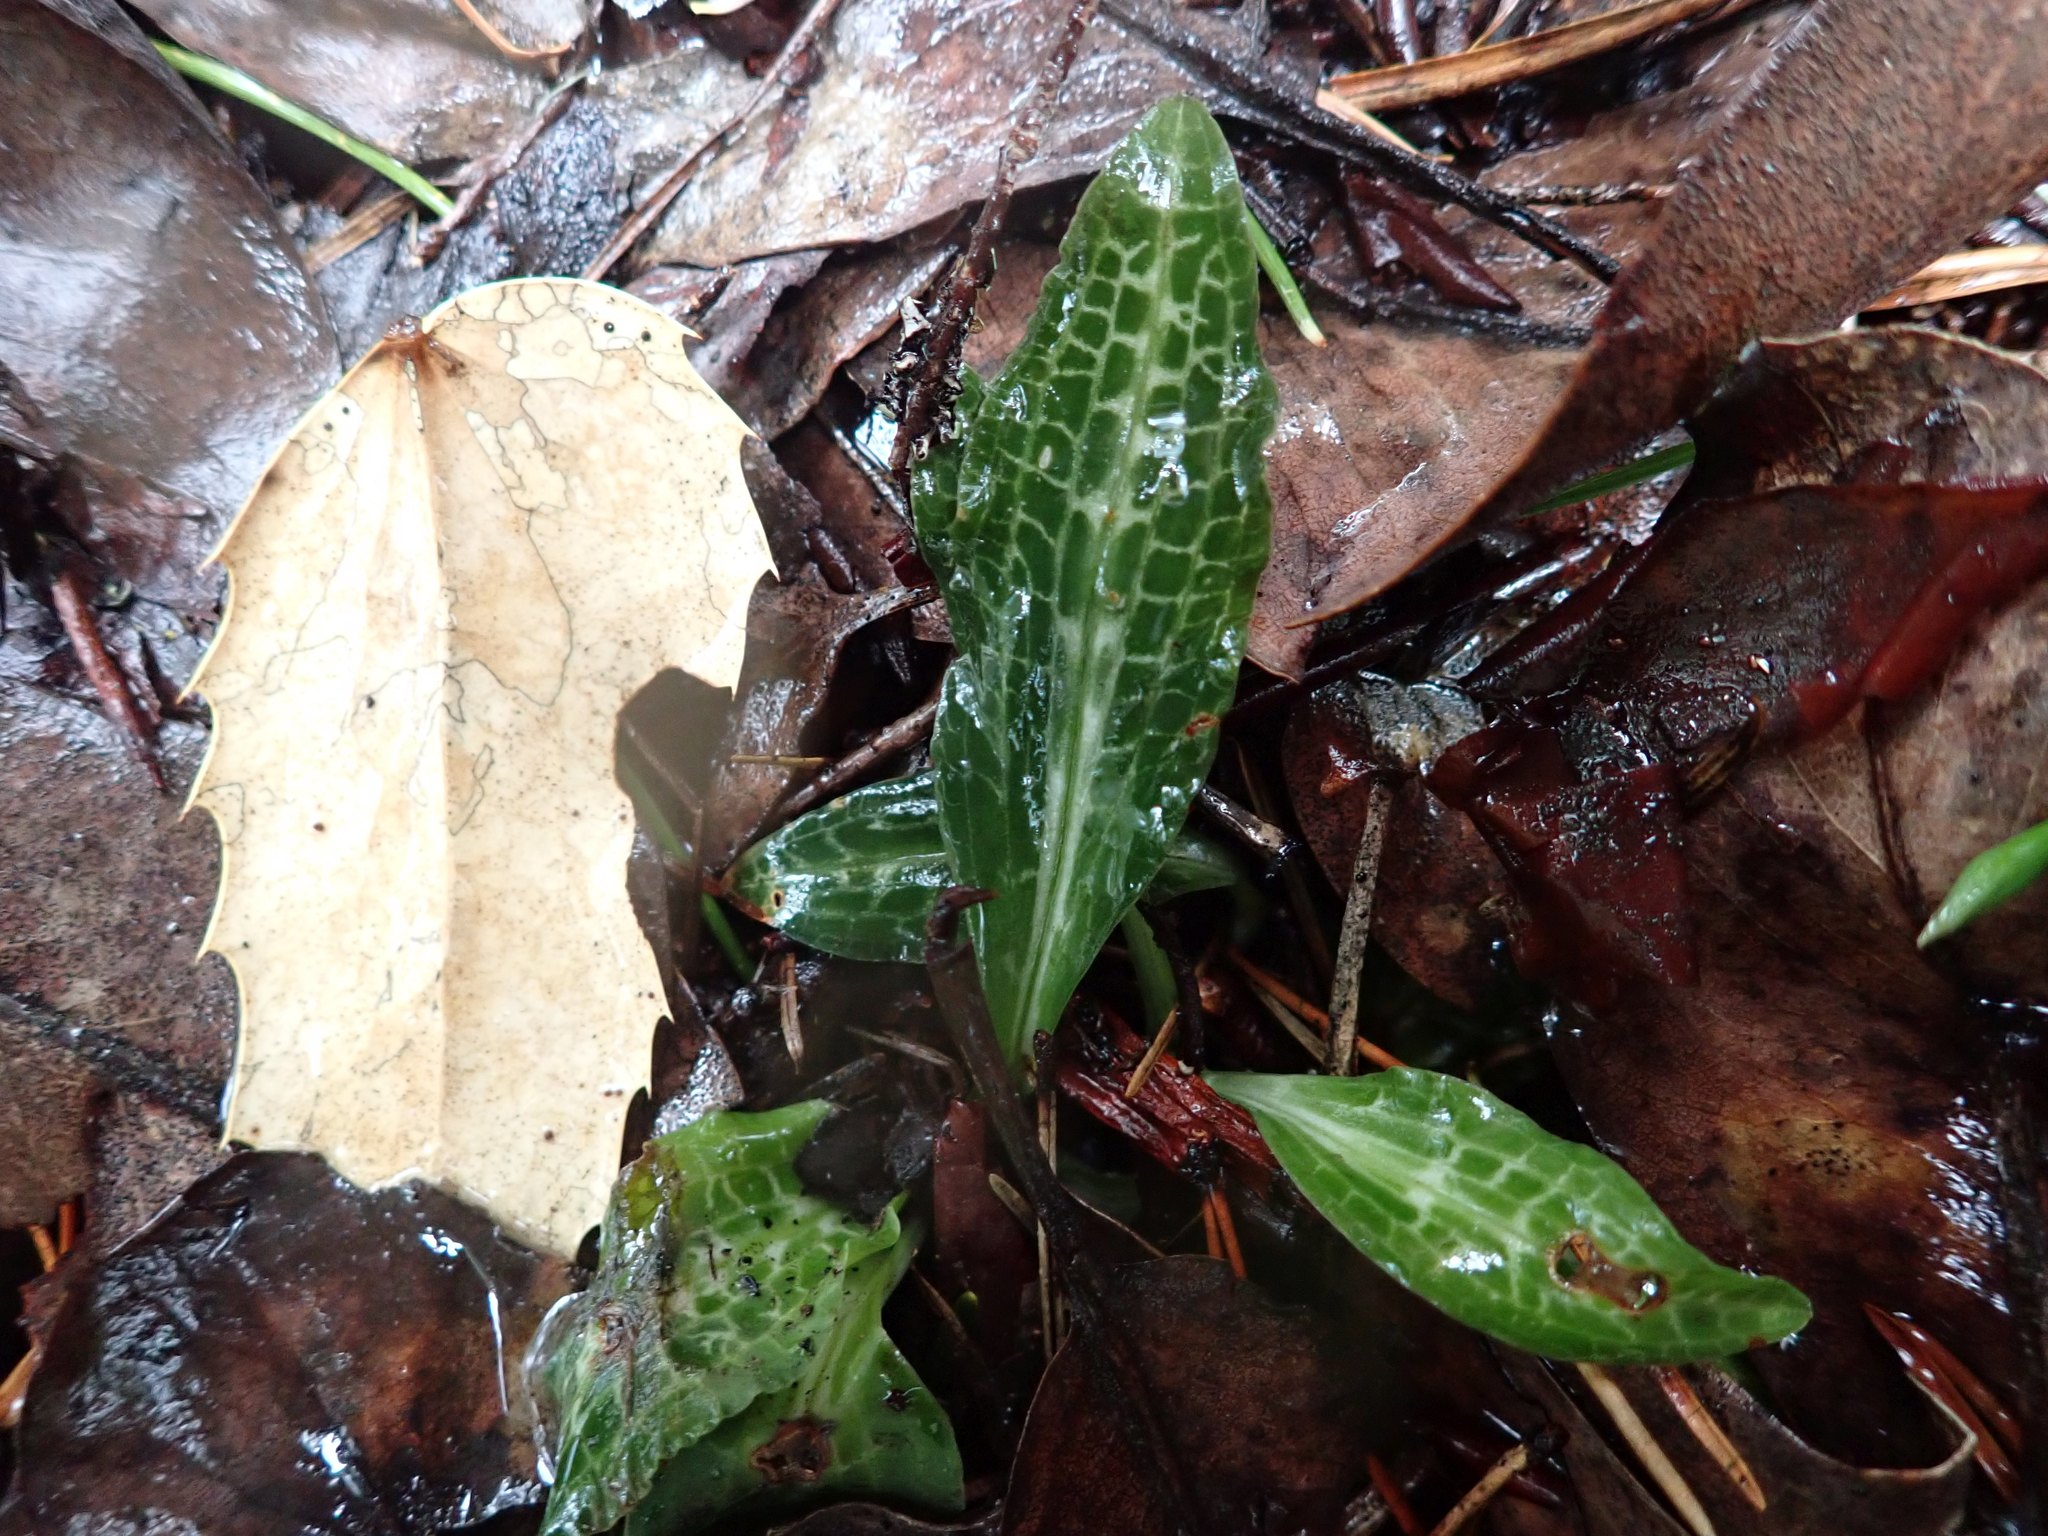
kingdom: Plantae
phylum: Tracheophyta
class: Liliopsida
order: Asparagales
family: Orchidaceae
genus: Goodyera
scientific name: Goodyera oblongifolia
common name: Giant rattlesnake-plantain
